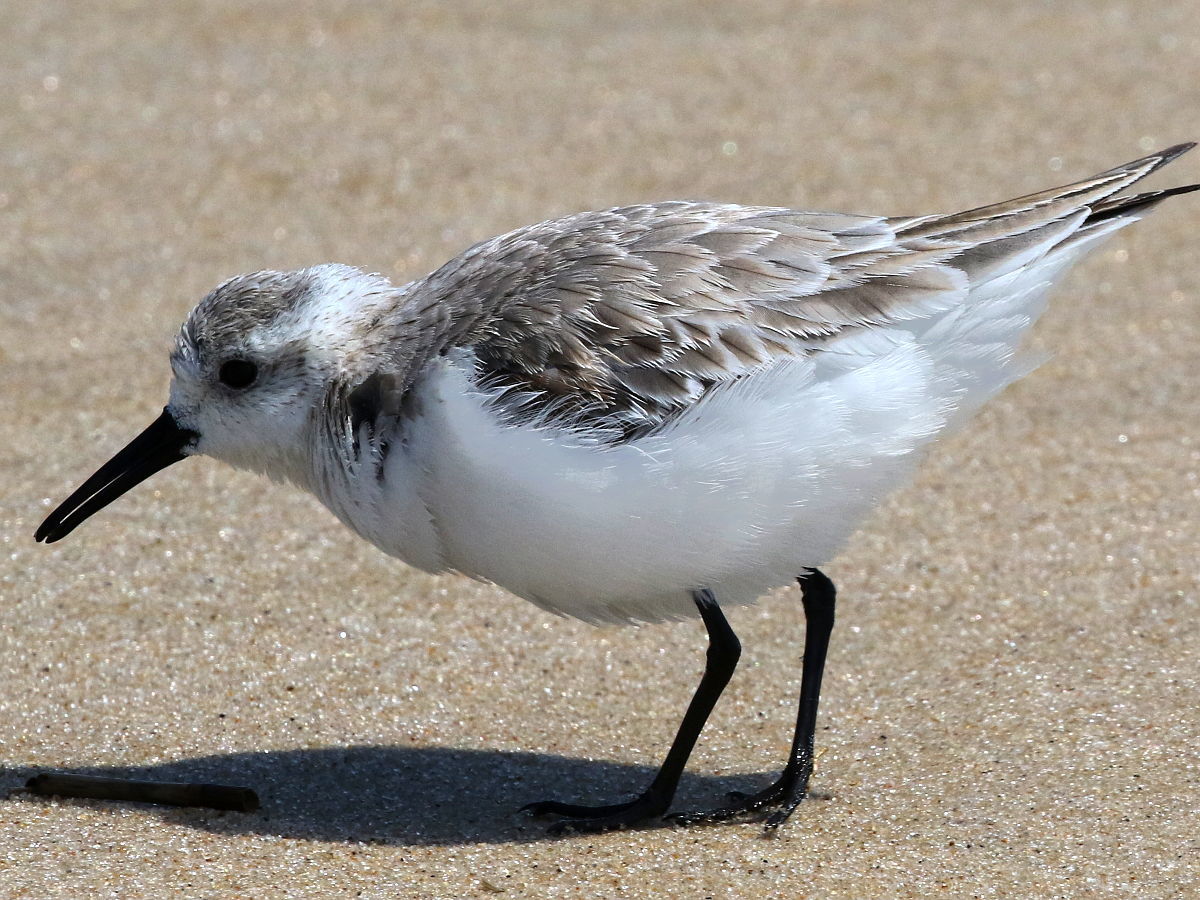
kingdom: Animalia
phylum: Chordata
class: Aves
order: Charadriiformes
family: Scolopacidae
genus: Calidris
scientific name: Calidris alba
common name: Sanderling
